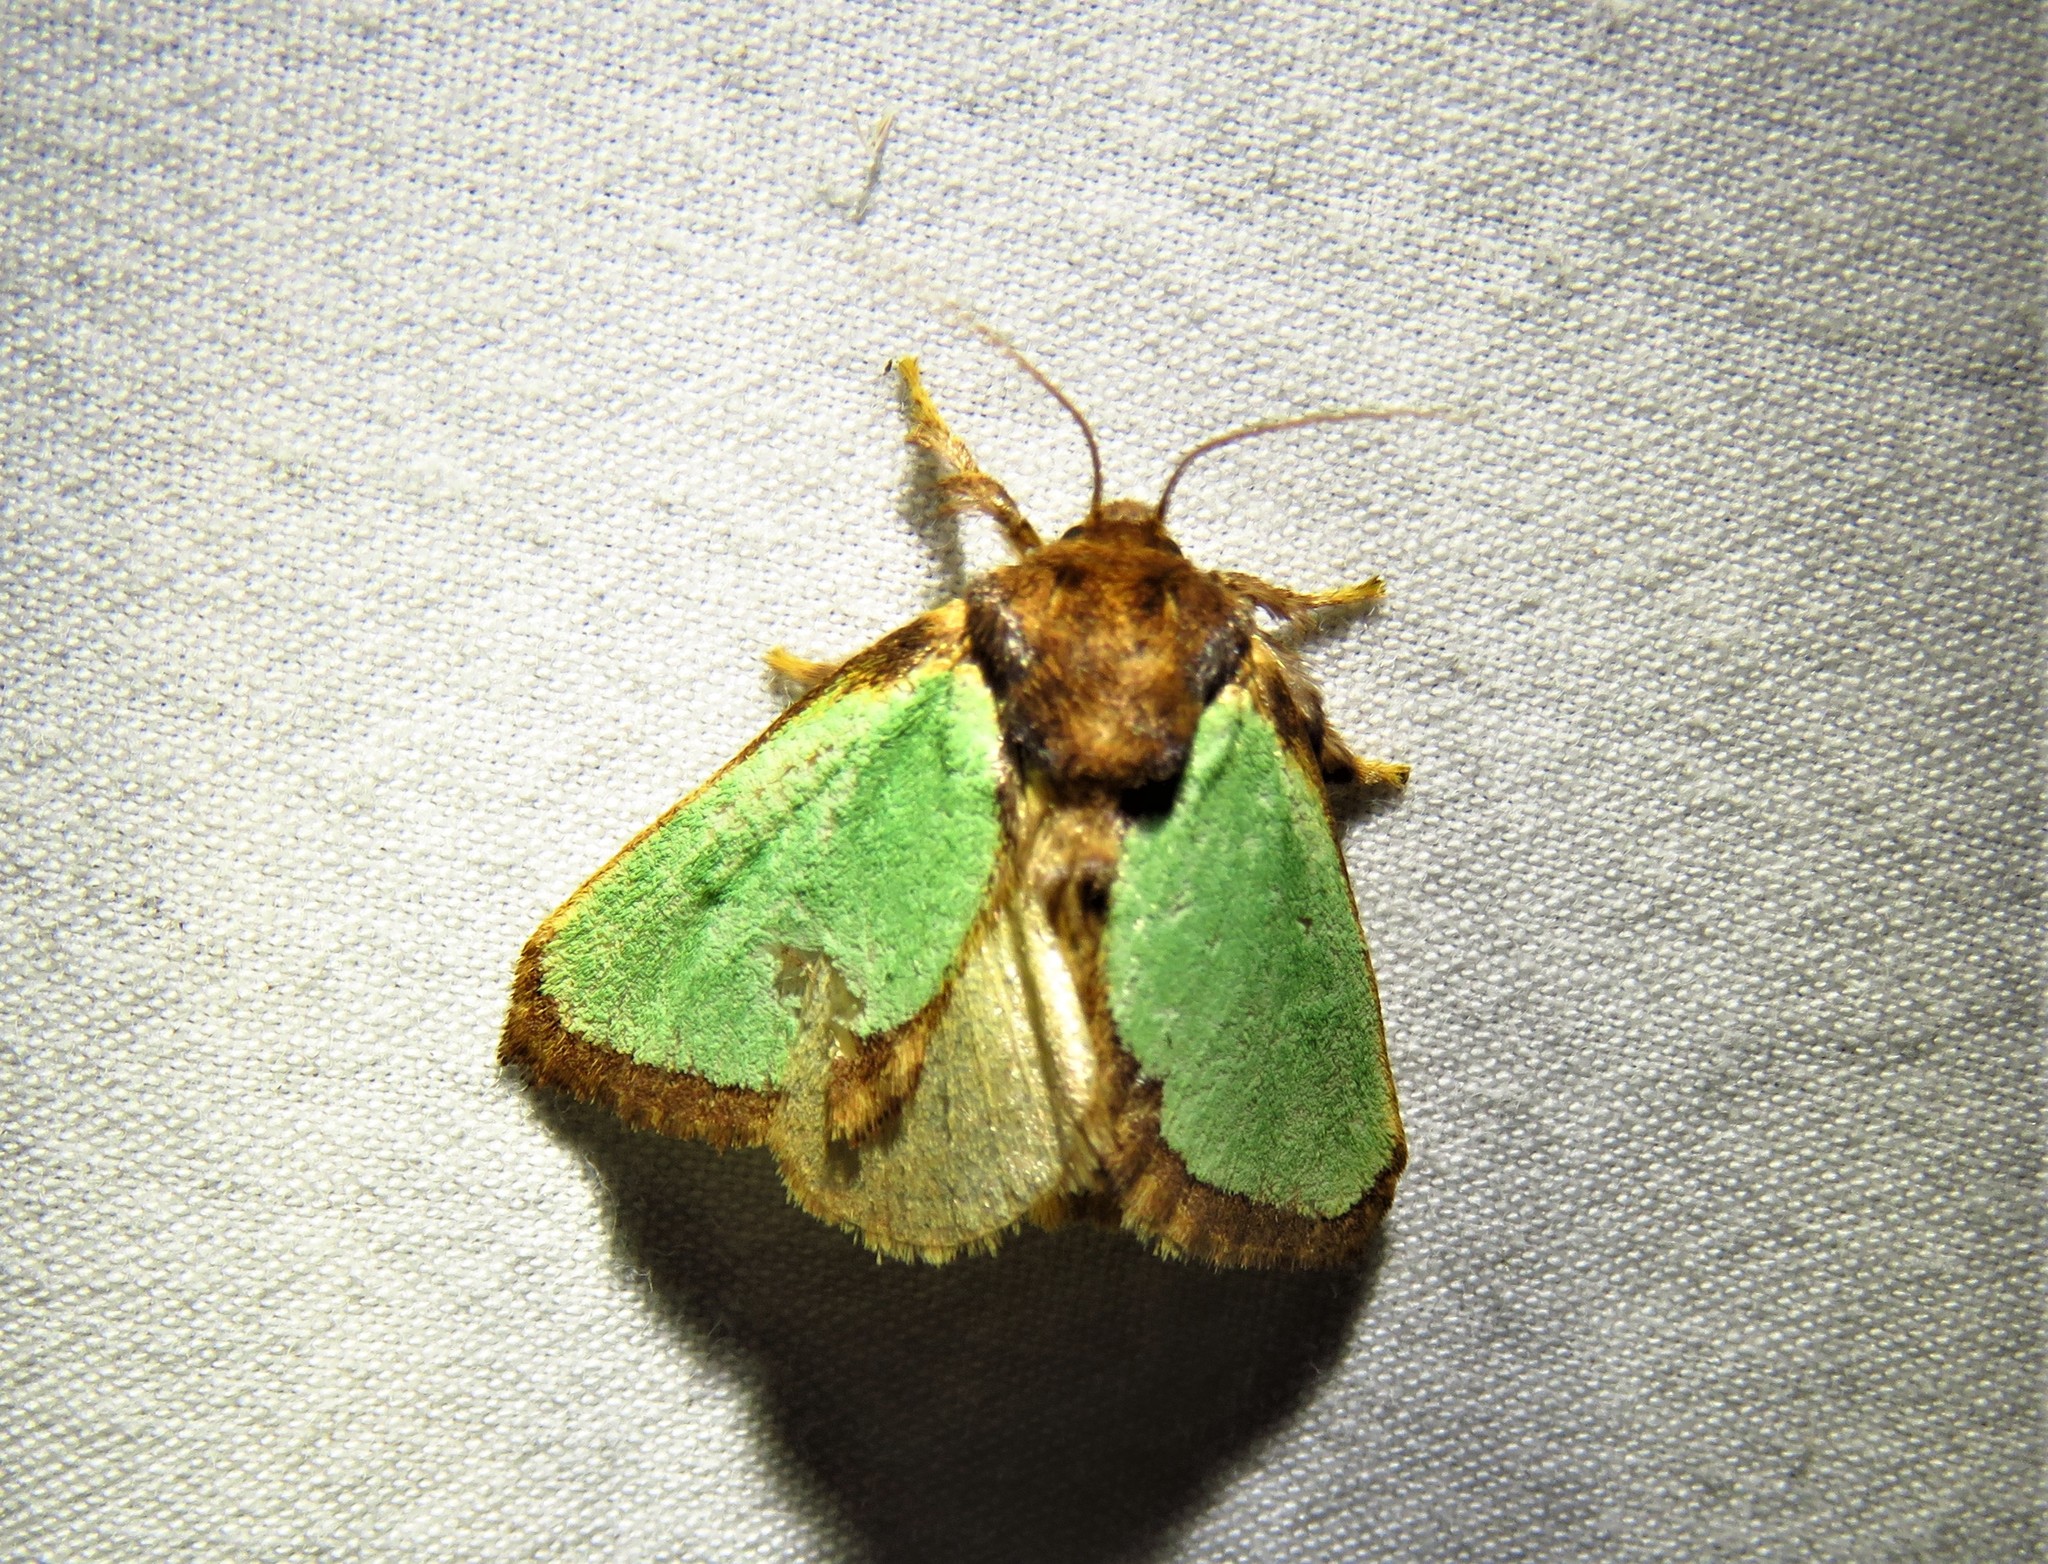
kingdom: Animalia
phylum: Arthropoda
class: Insecta
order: Lepidoptera
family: Limacodidae
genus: Euclea
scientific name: Euclea incisa
